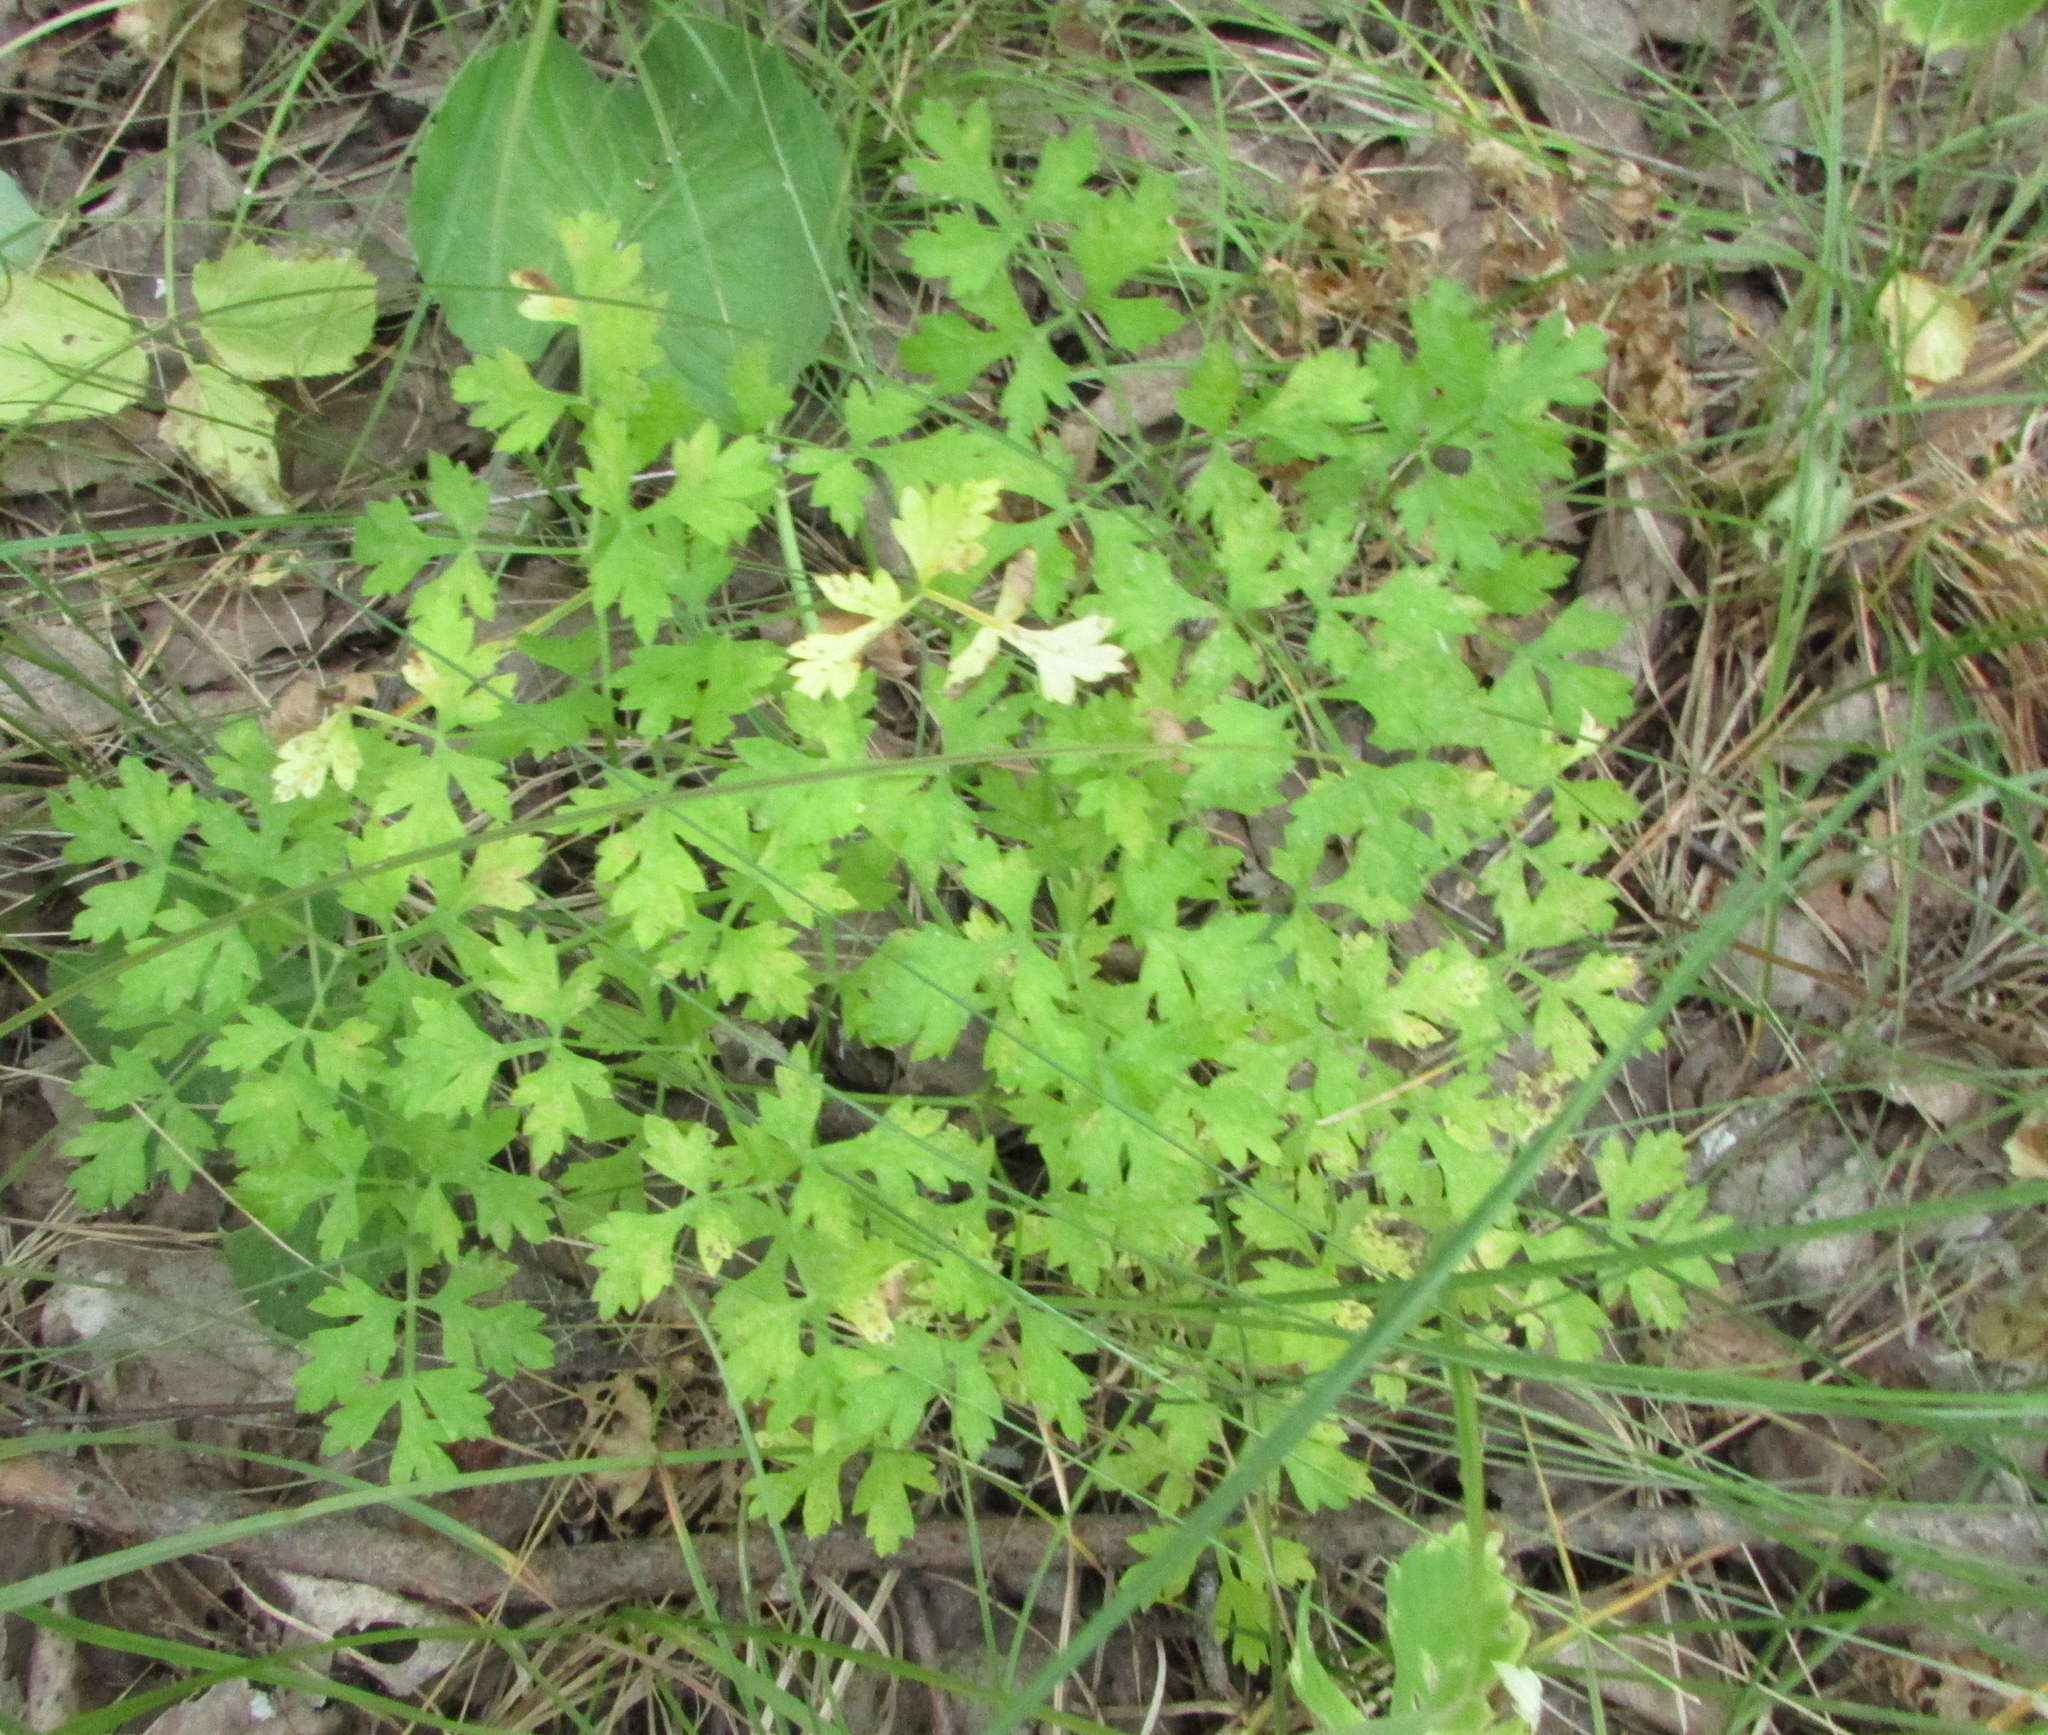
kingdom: Plantae
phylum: Tracheophyta
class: Magnoliopsida
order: Apiales
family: Apiaceae
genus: Oreoselinum
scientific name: Oreoselinum nigrum
